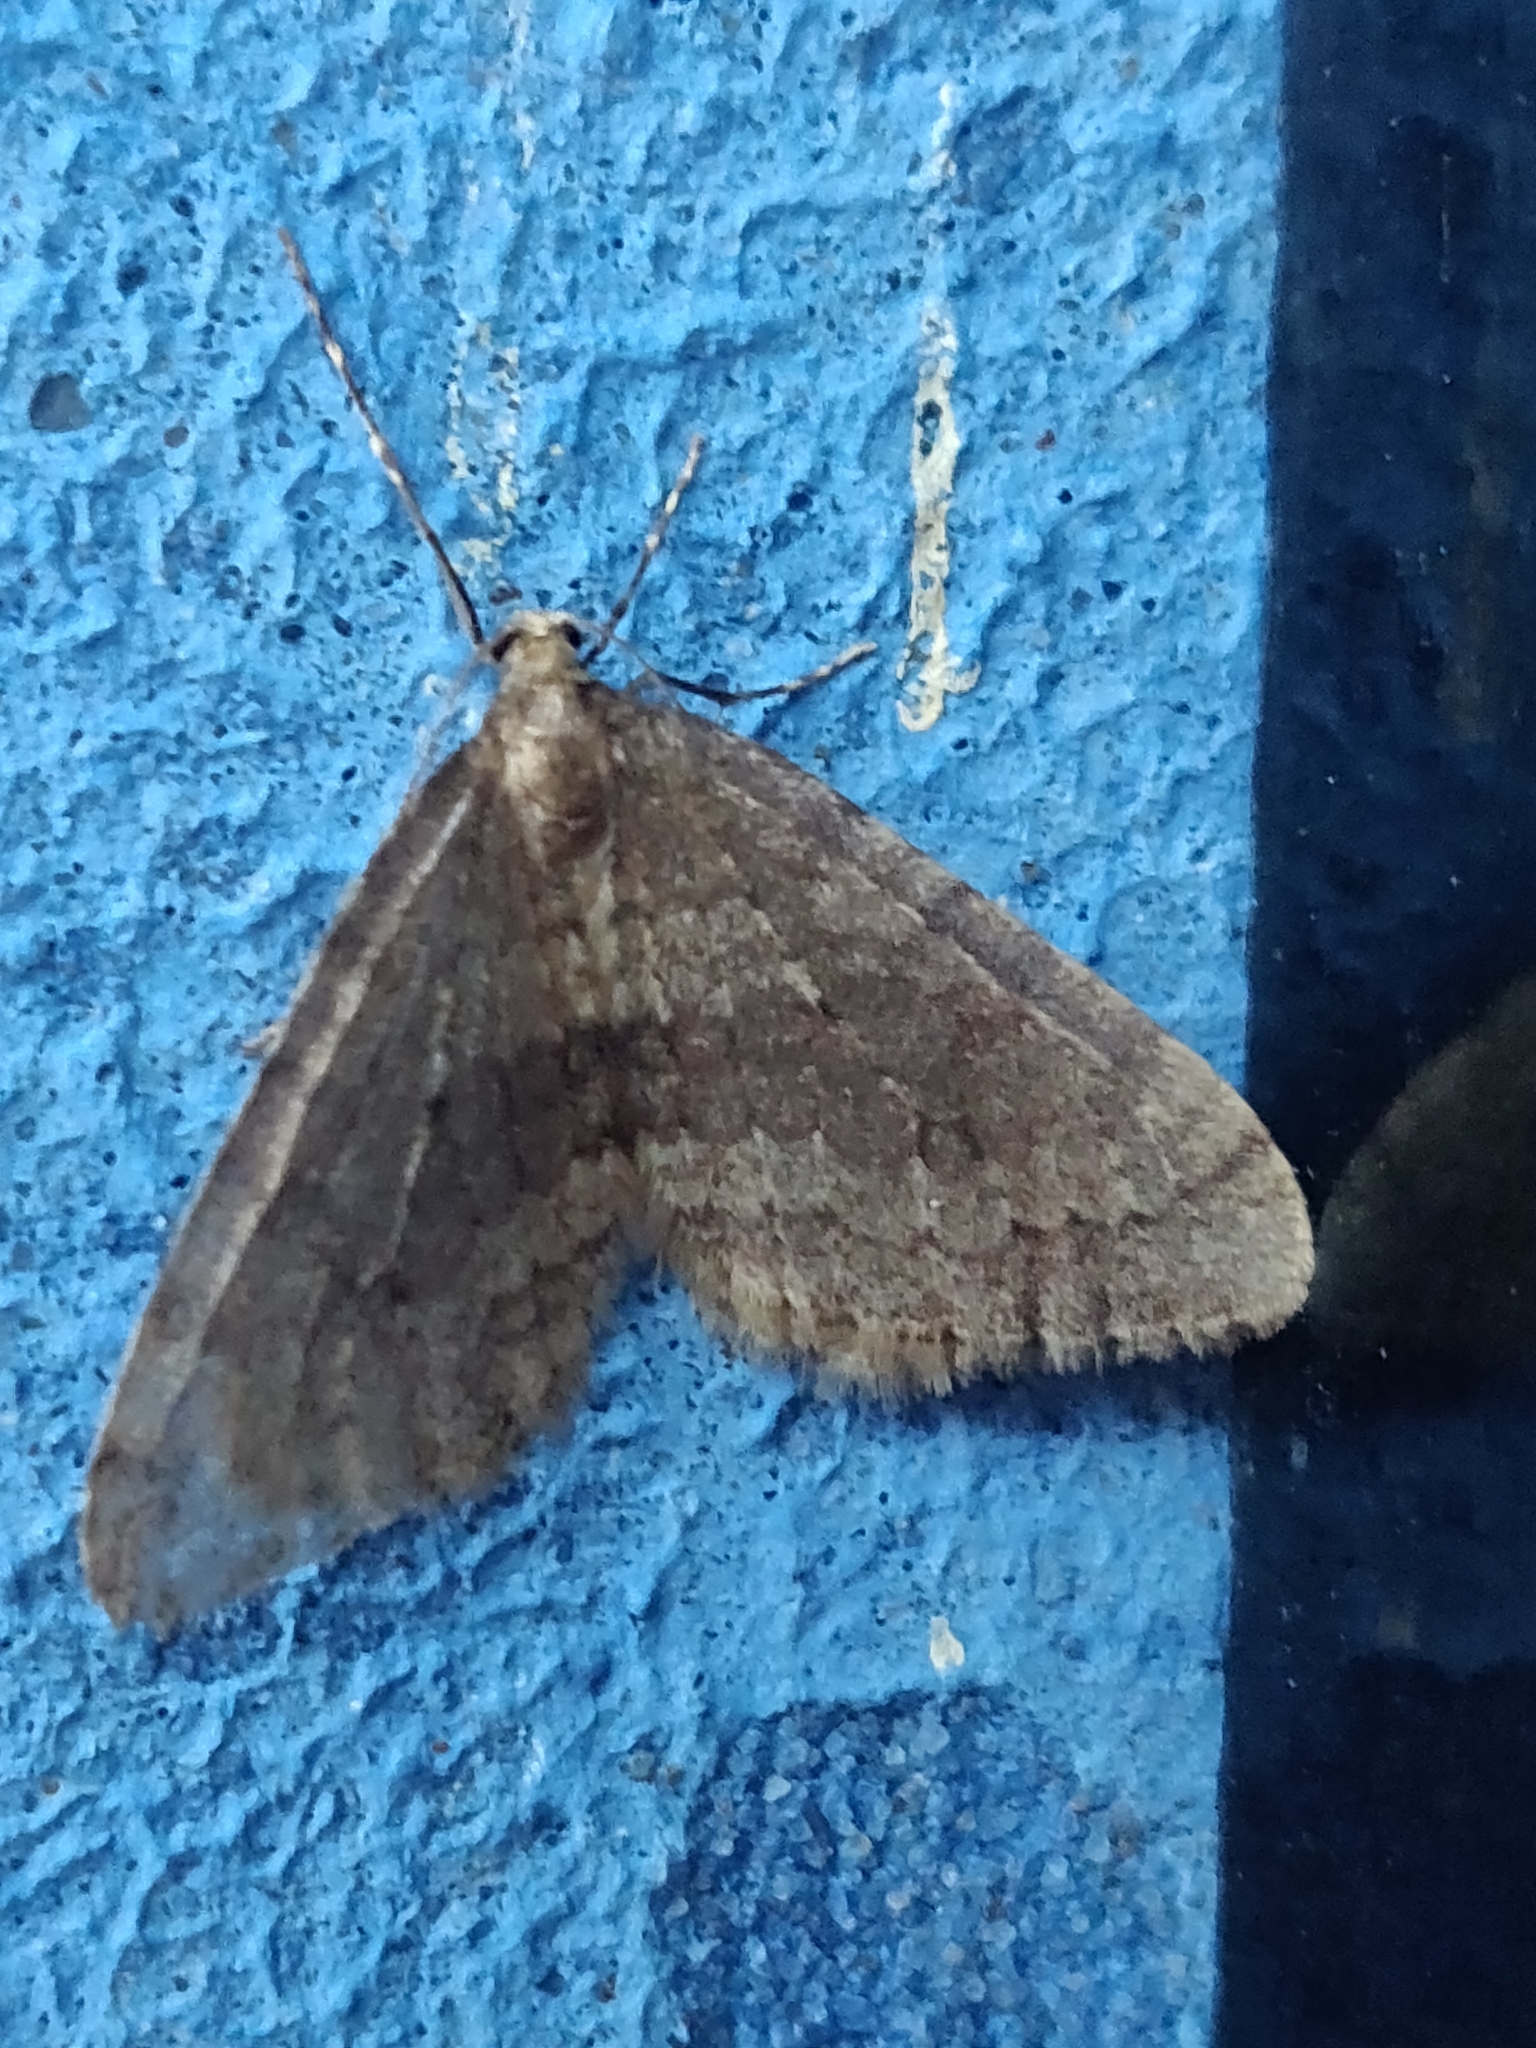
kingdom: Animalia
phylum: Arthropoda
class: Insecta
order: Lepidoptera
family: Geometridae
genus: Operophtera
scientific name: Operophtera brumata
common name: Winter moth
